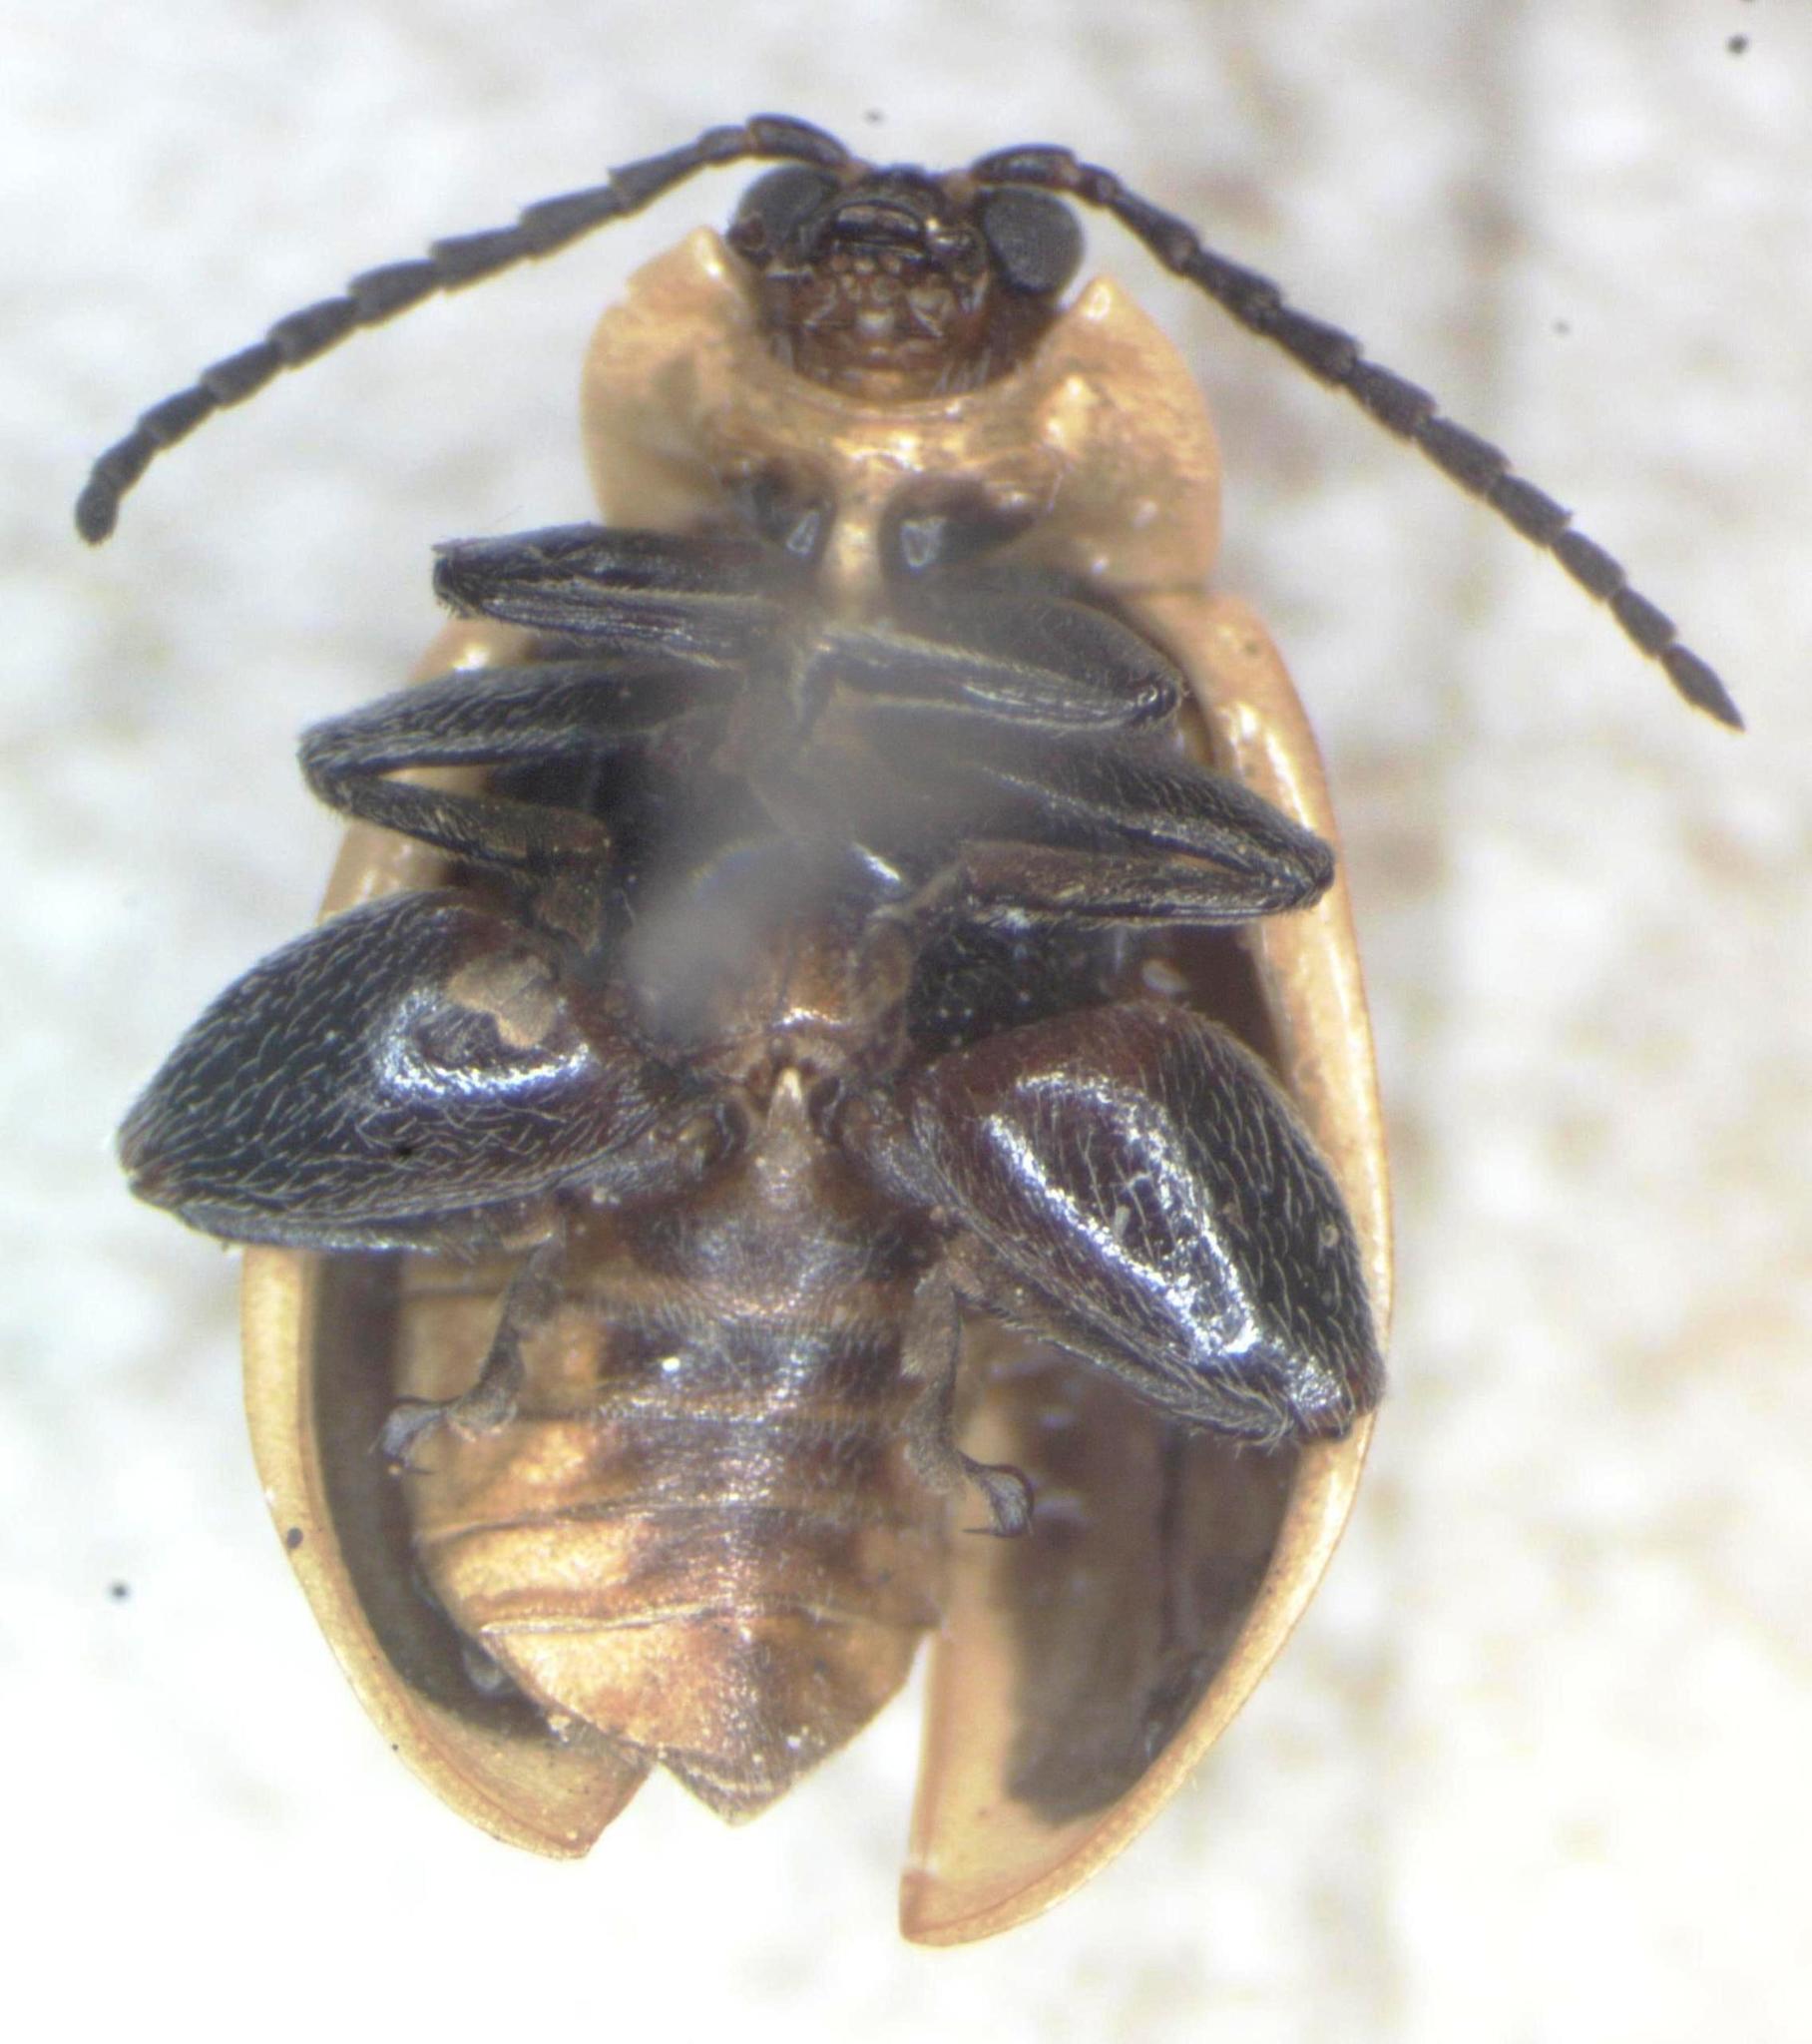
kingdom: Animalia
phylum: Arthropoda
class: Insecta
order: Coleoptera
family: Chrysomelidae
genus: Asphaera
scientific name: Asphaera
